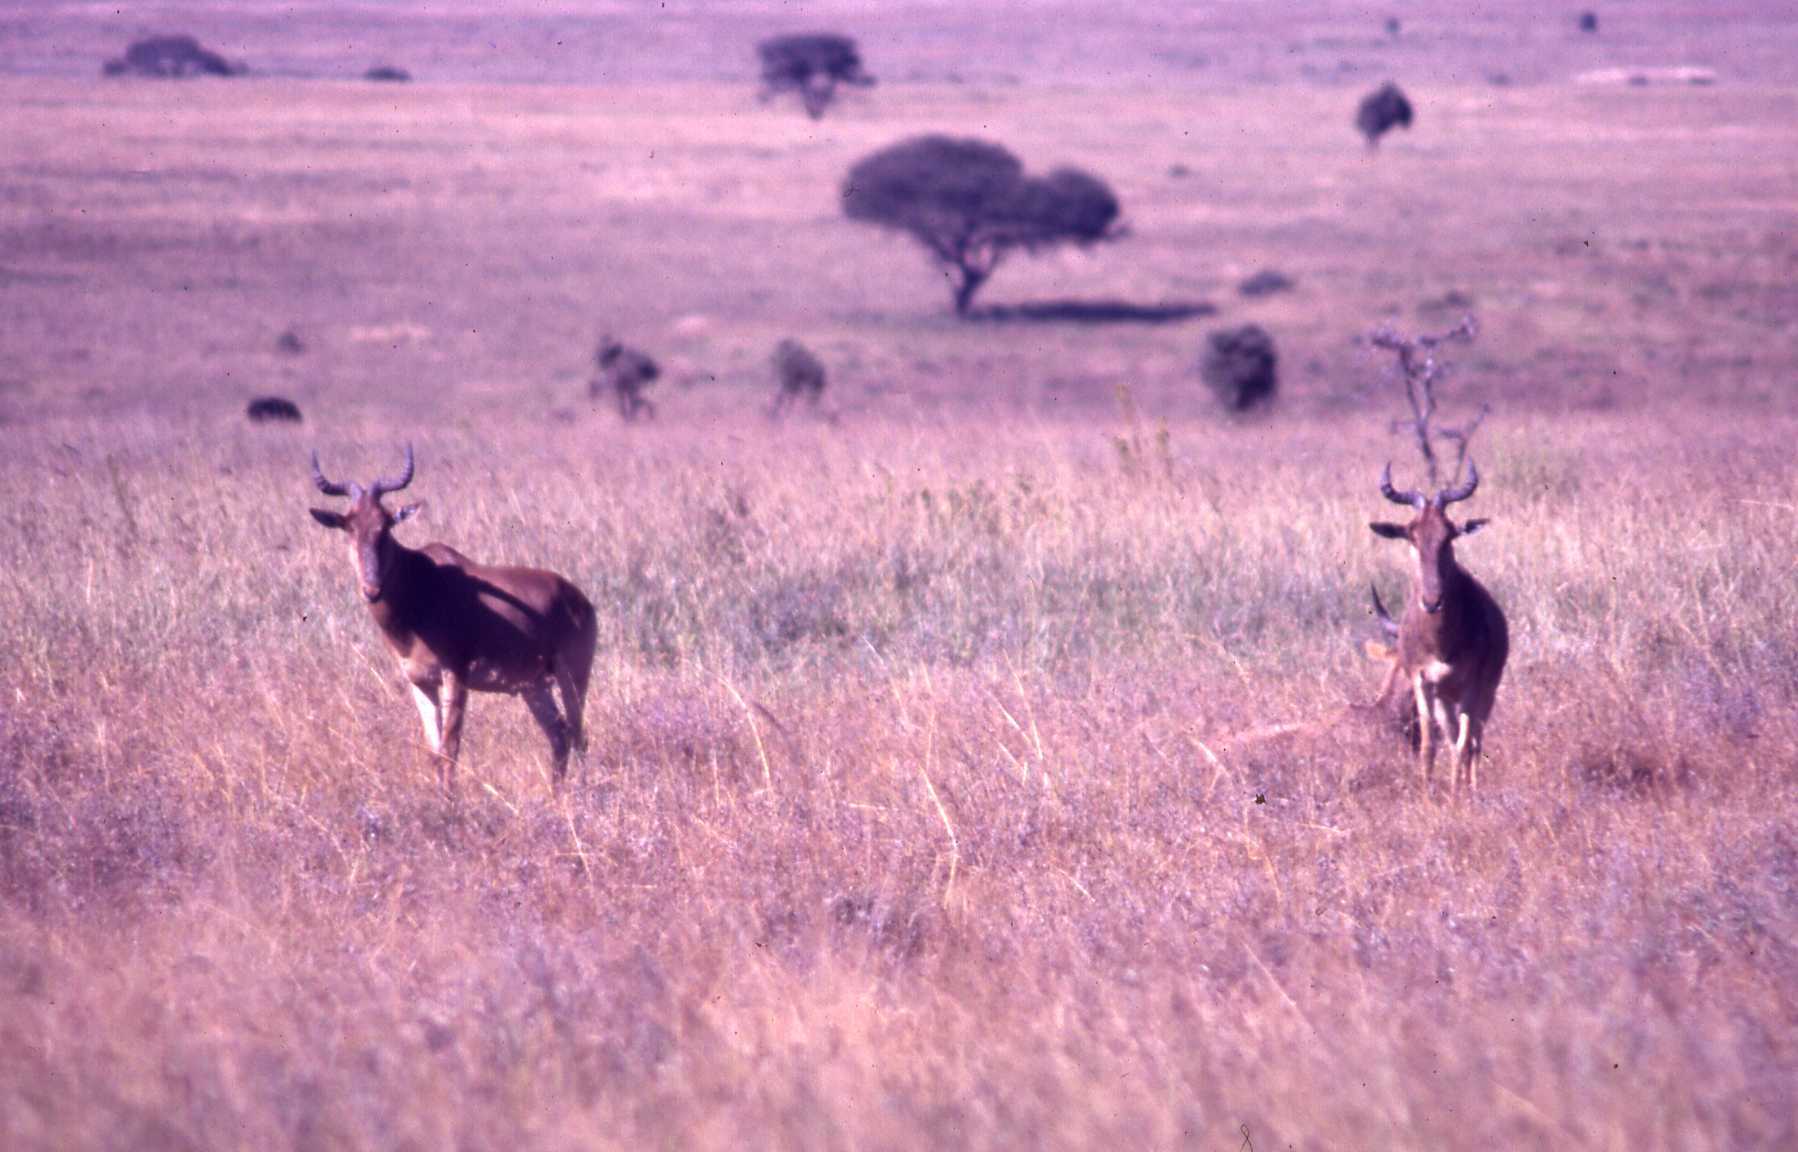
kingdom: Animalia
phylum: Chordata
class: Mammalia
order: Artiodactyla
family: Bovidae
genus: Alcelaphus
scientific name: Alcelaphus buselaphus
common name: Hartebeest
